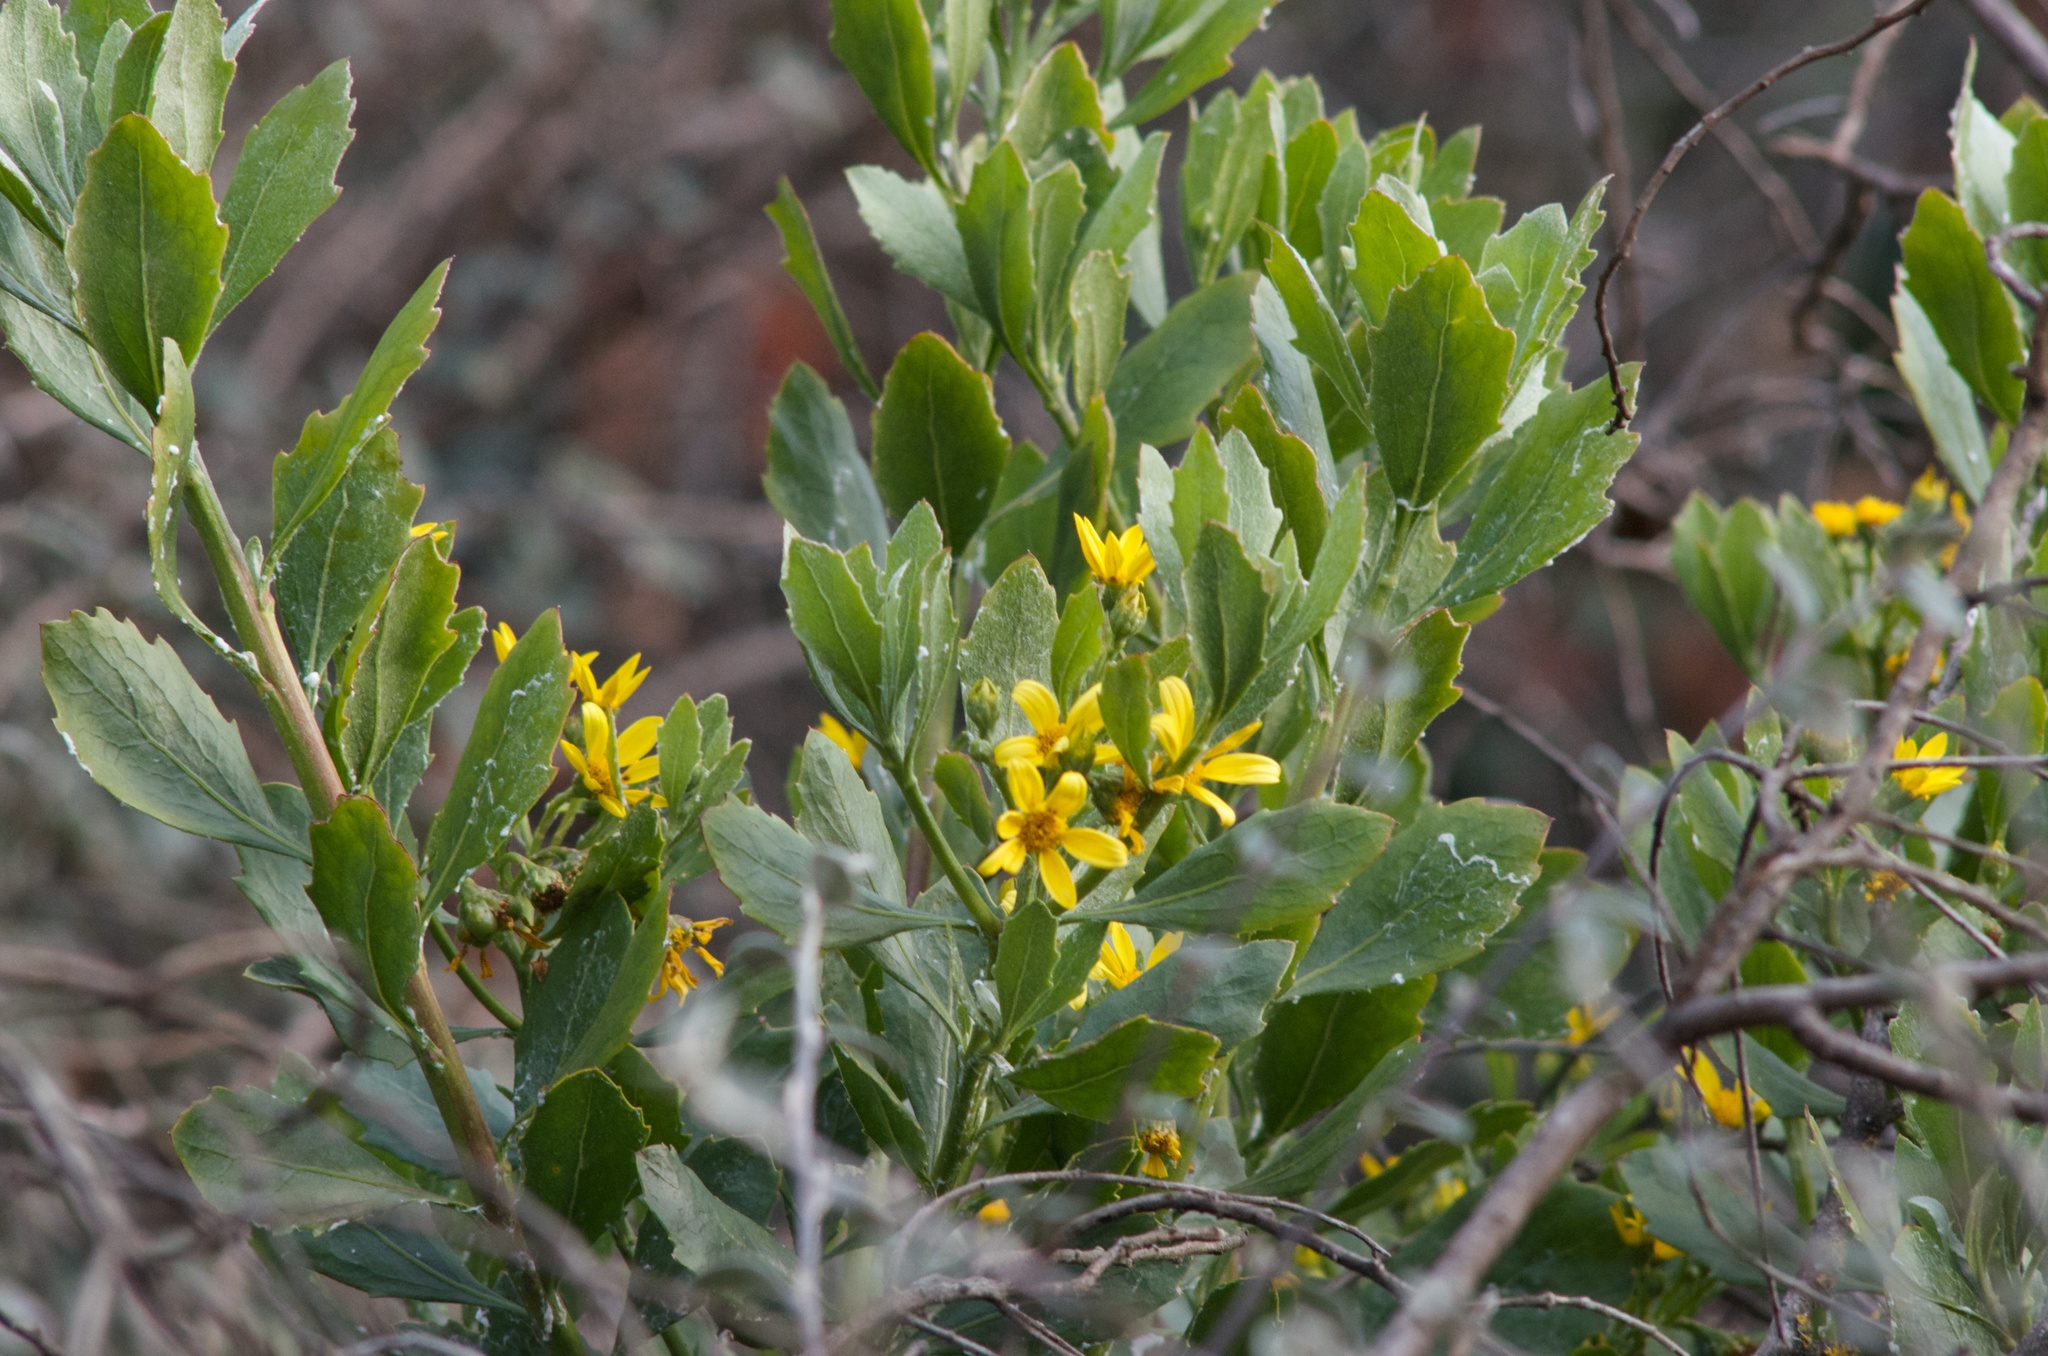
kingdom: Plantae
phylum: Tracheophyta
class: Magnoliopsida
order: Asterales
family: Asteraceae
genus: Osteospermum
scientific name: Osteospermum moniliferum
